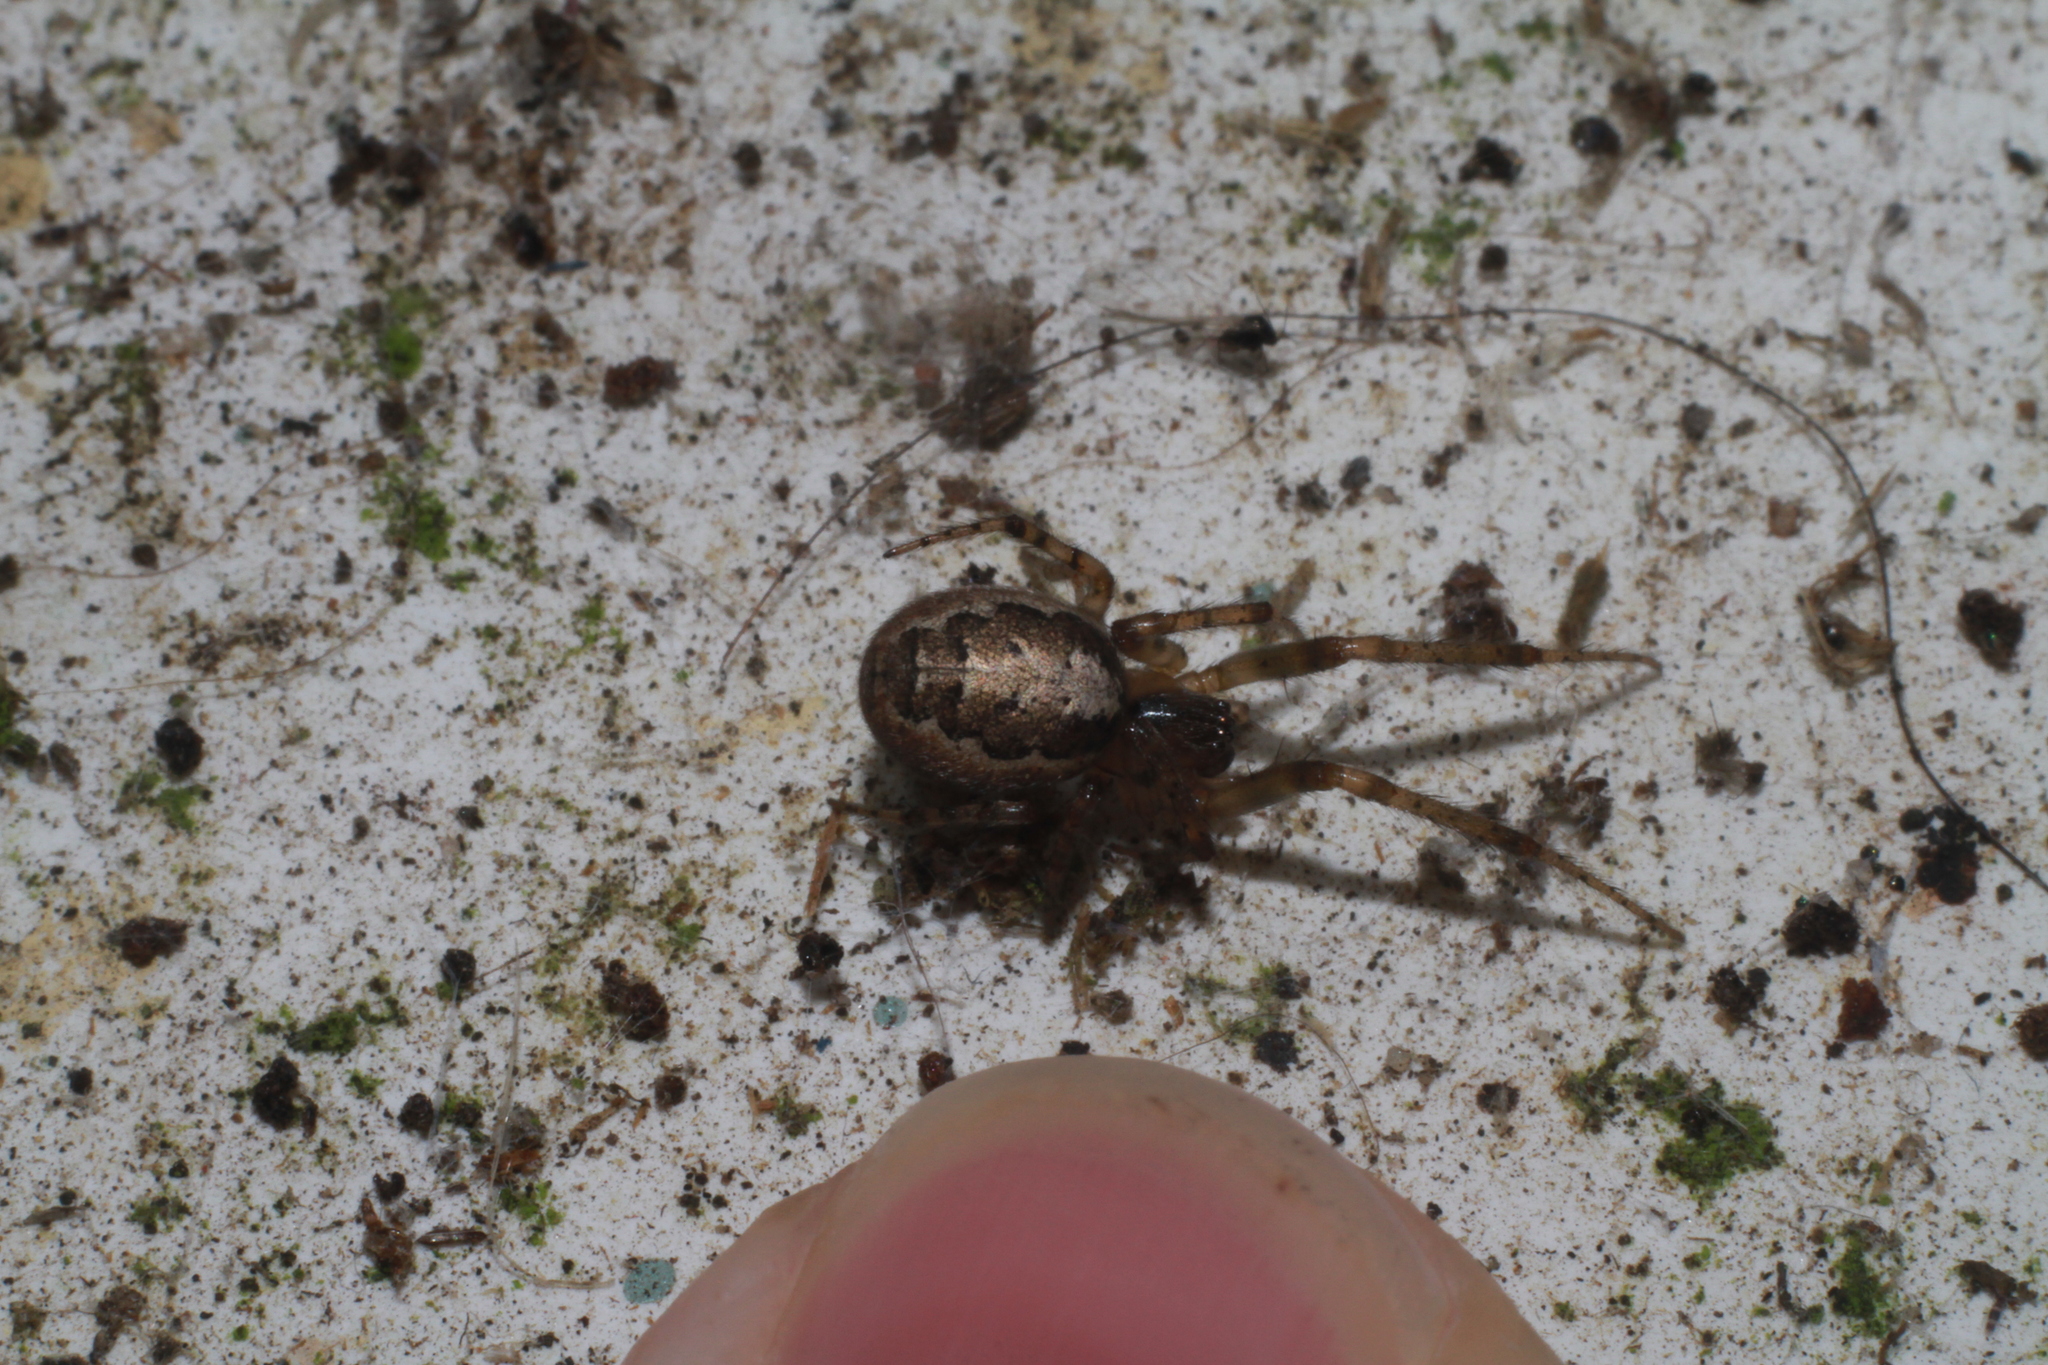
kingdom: Animalia
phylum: Arthropoda
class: Arachnida
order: Araneae
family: Araneidae
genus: Zygiella
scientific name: Zygiella x-notata
